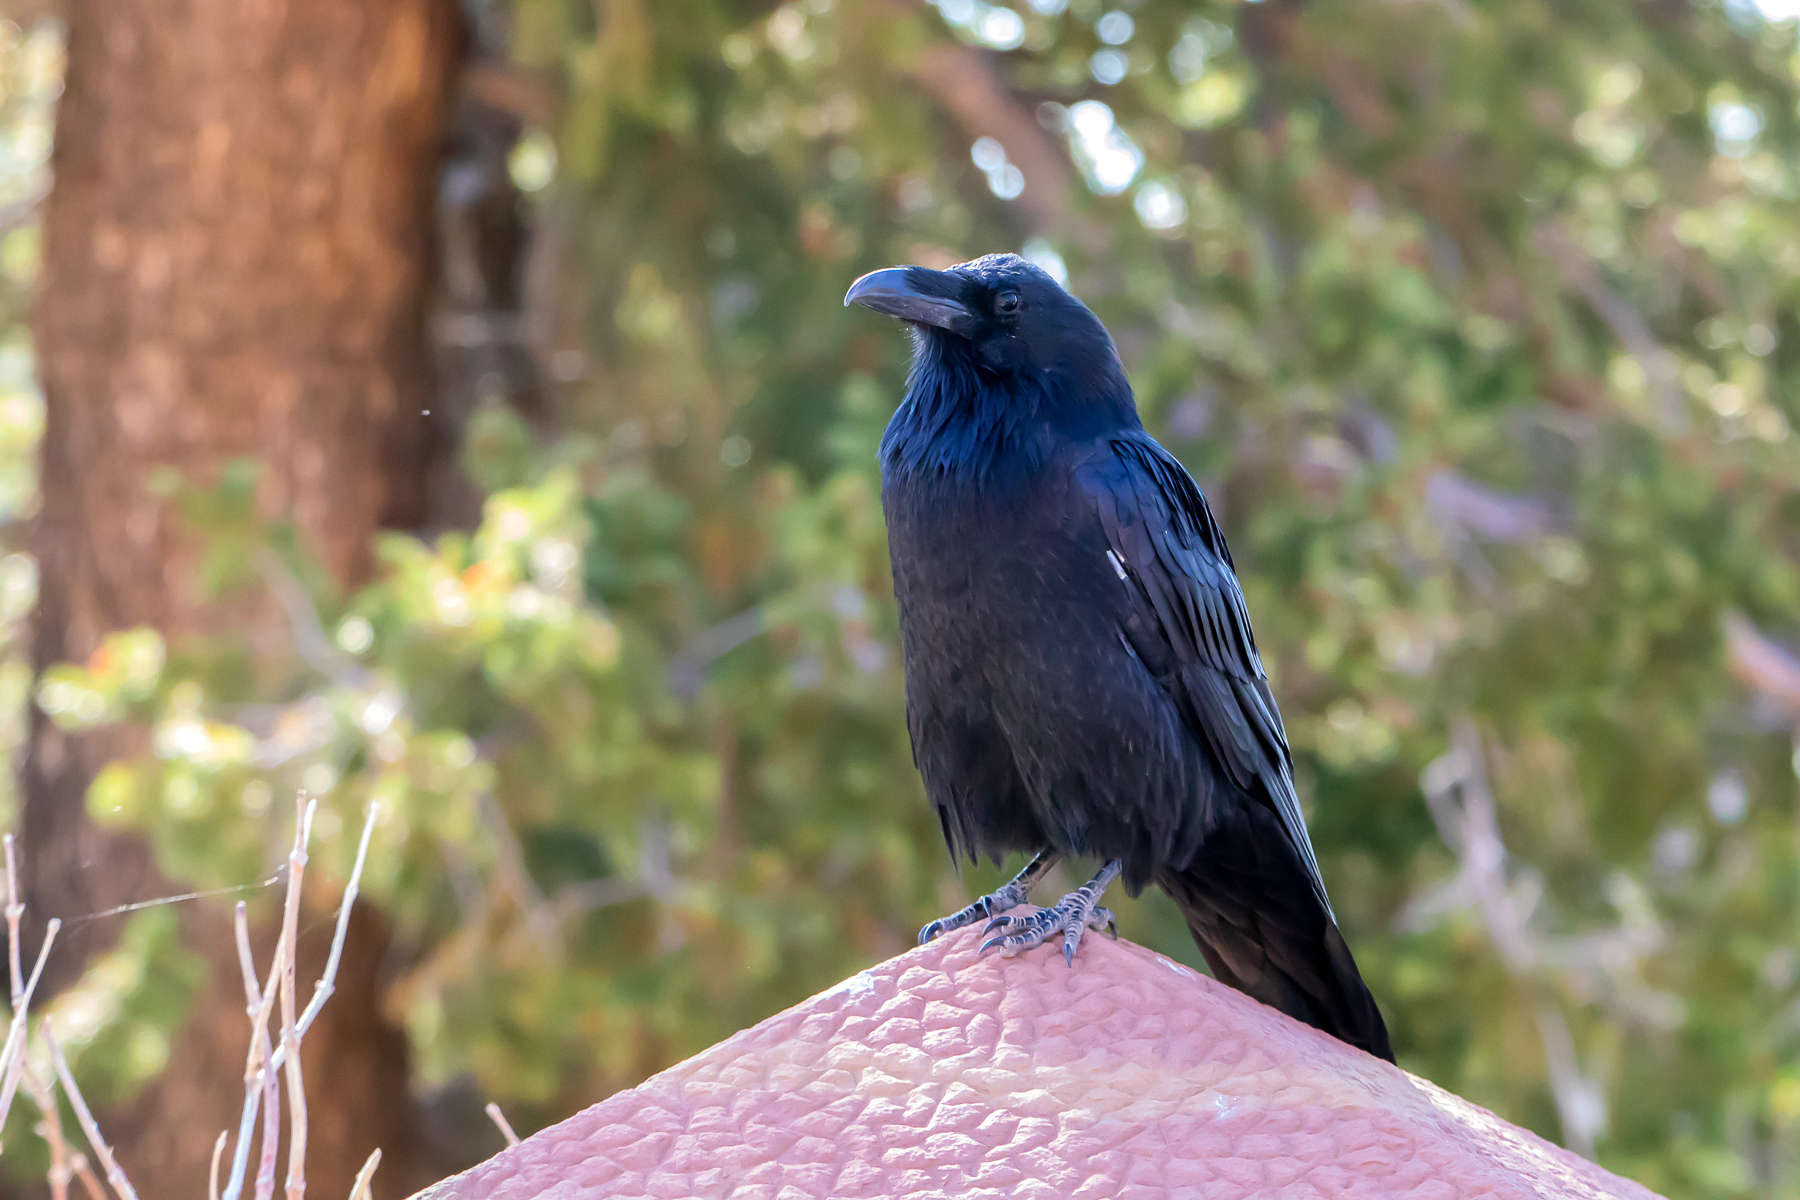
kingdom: Animalia
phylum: Chordata
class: Aves
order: Passeriformes
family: Corvidae
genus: Corvus
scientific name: Corvus corax
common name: Common raven
